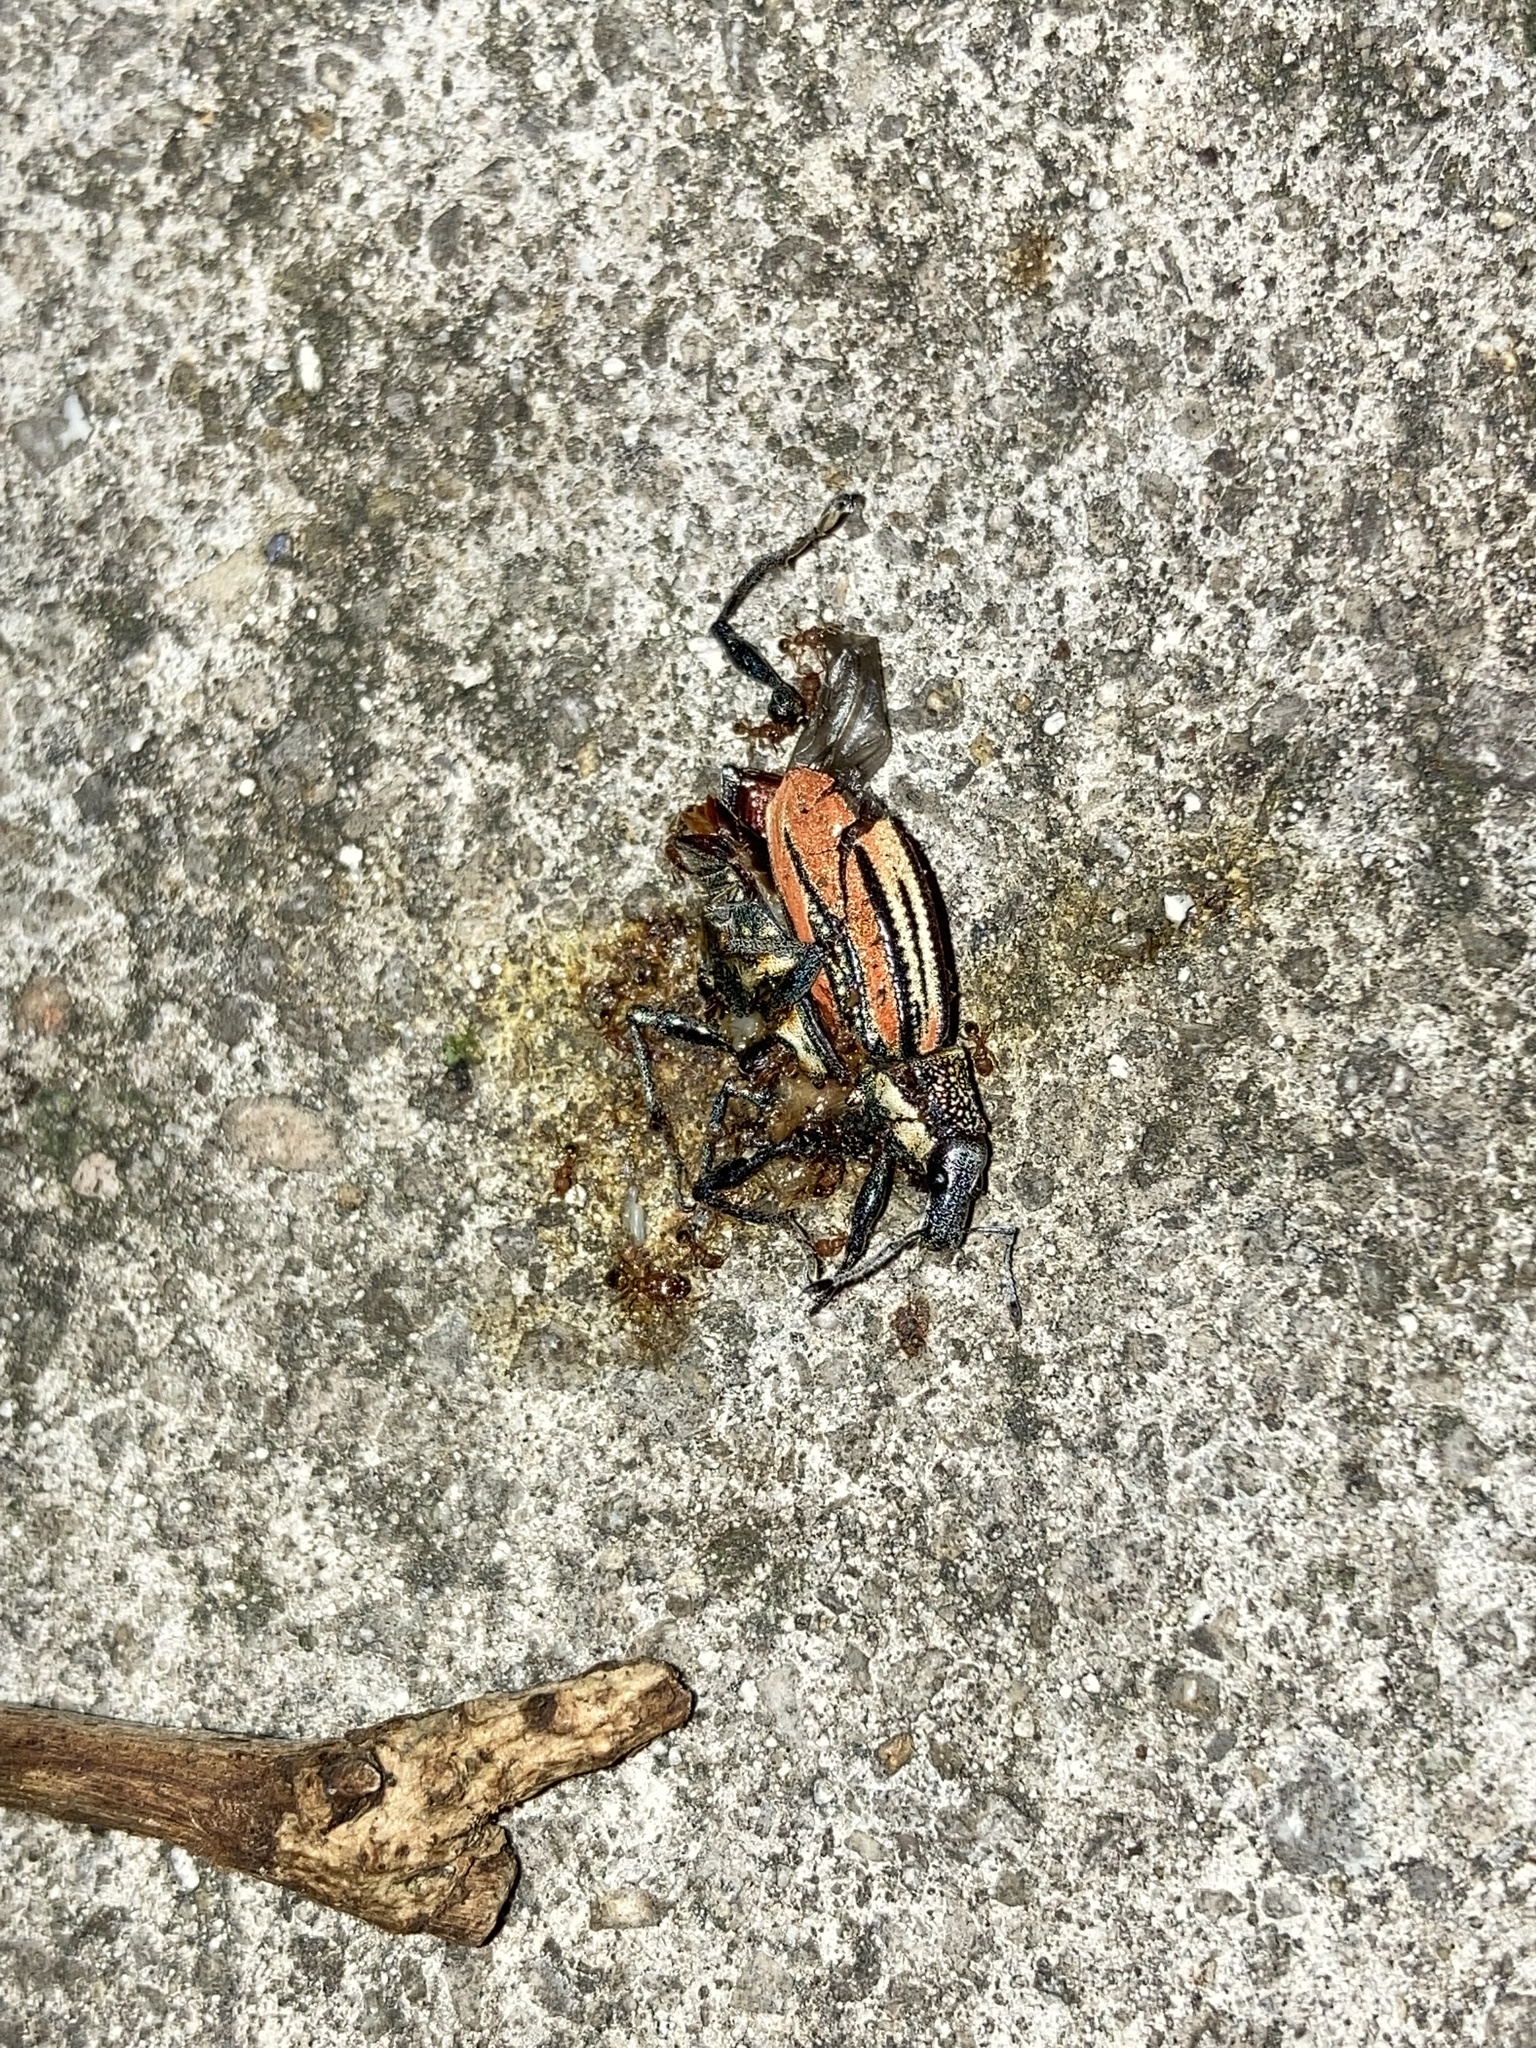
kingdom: Animalia
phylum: Arthropoda
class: Insecta
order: Coleoptera
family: Curculionidae
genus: Diaprepes
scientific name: Diaprepes abbreviatus
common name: Root weevil
